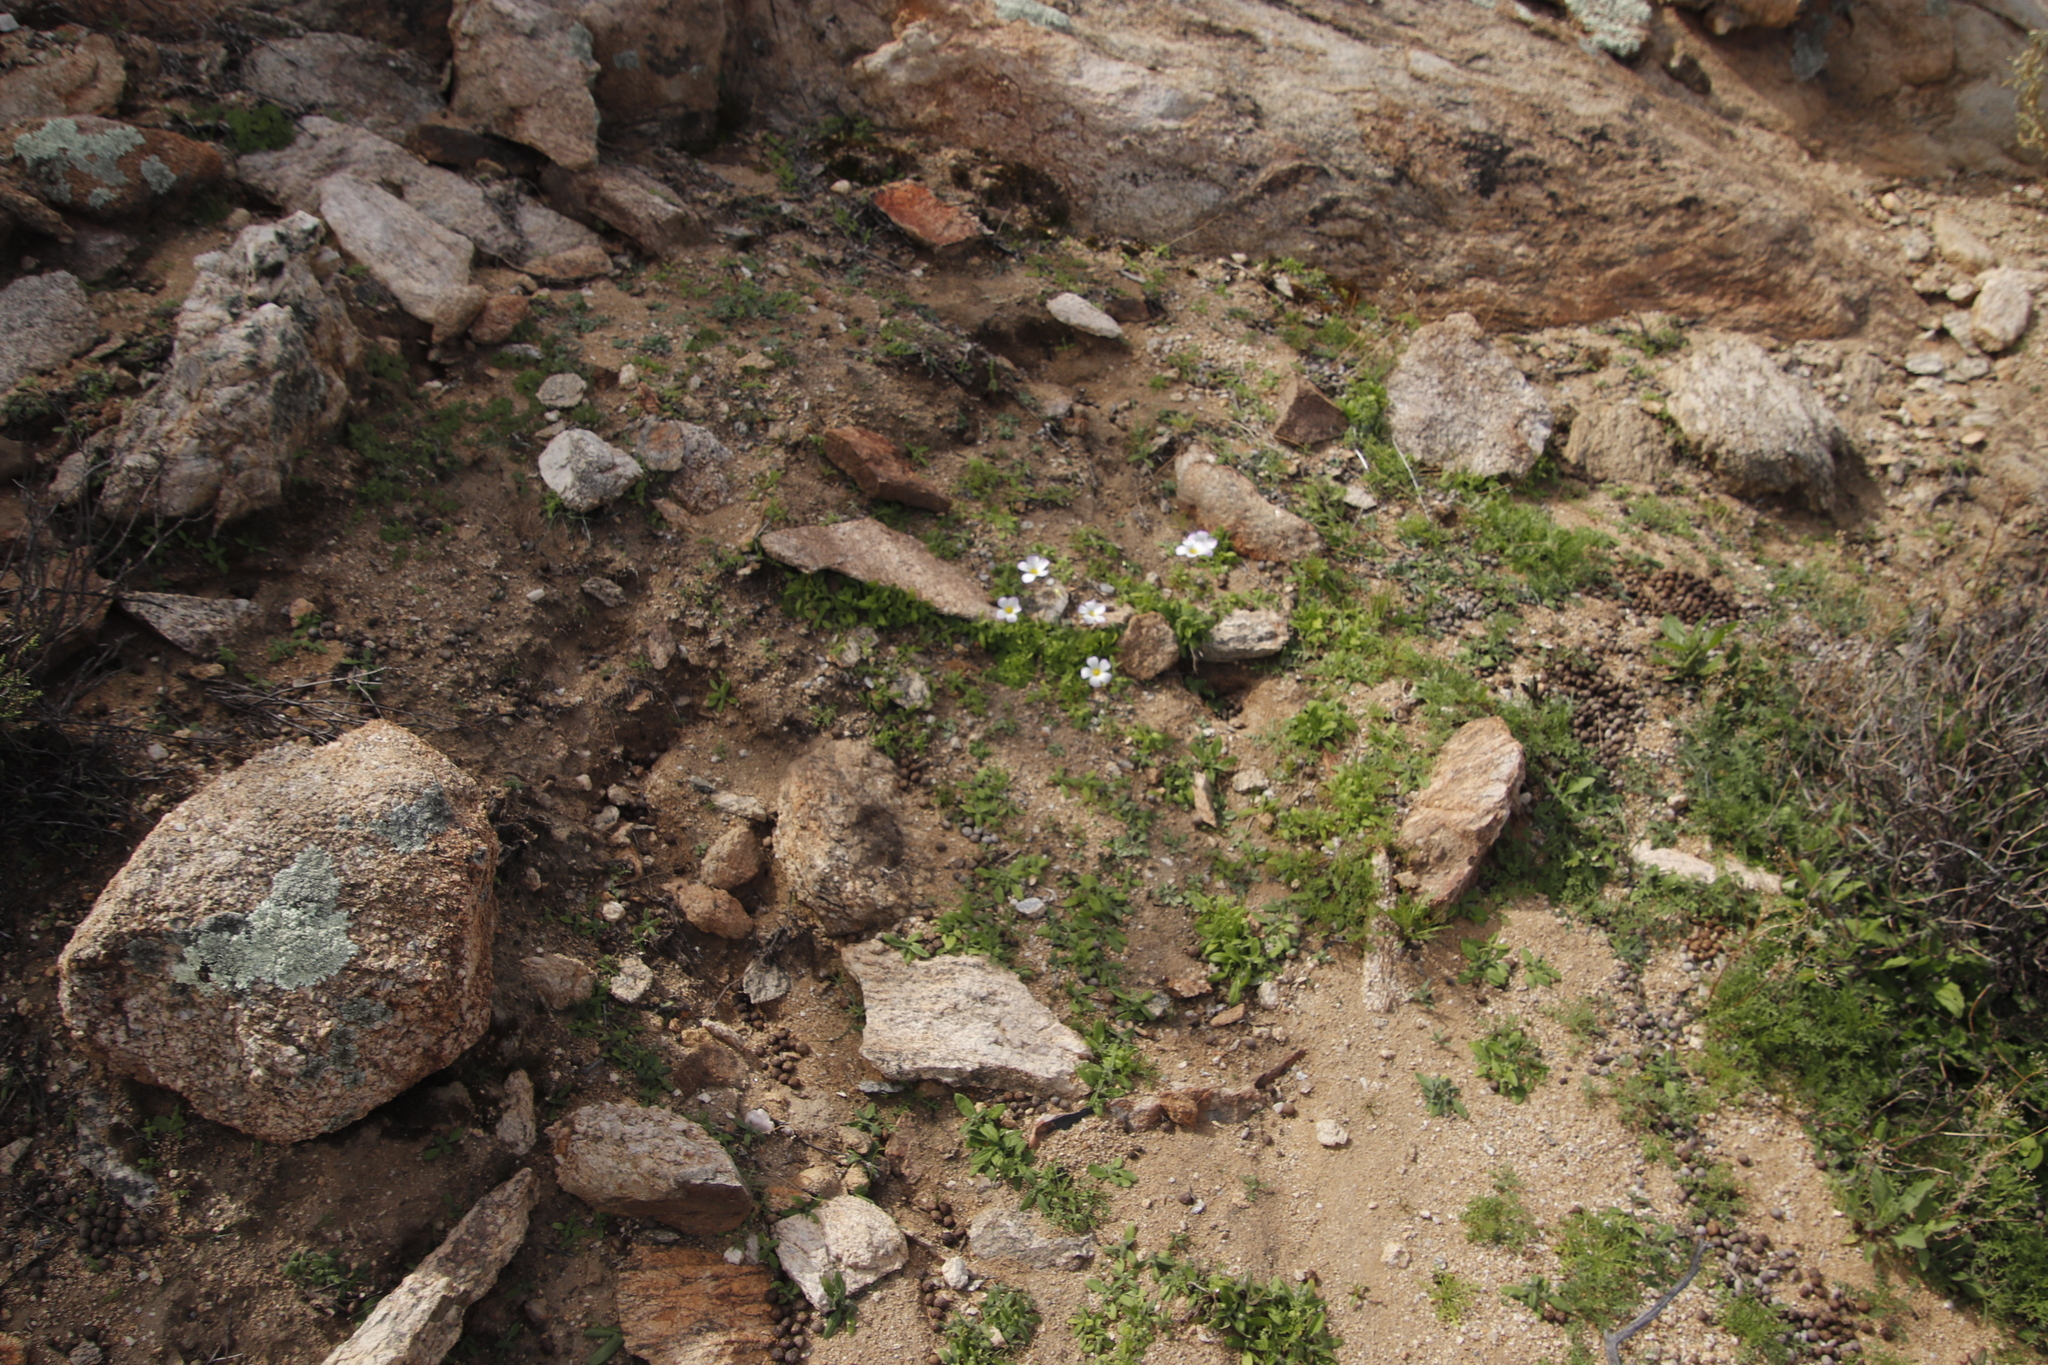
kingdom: Plantae
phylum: Tracheophyta
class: Magnoliopsida
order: Oxalidales
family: Oxalidaceae
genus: Oxalis
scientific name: Oxalis obtusa
